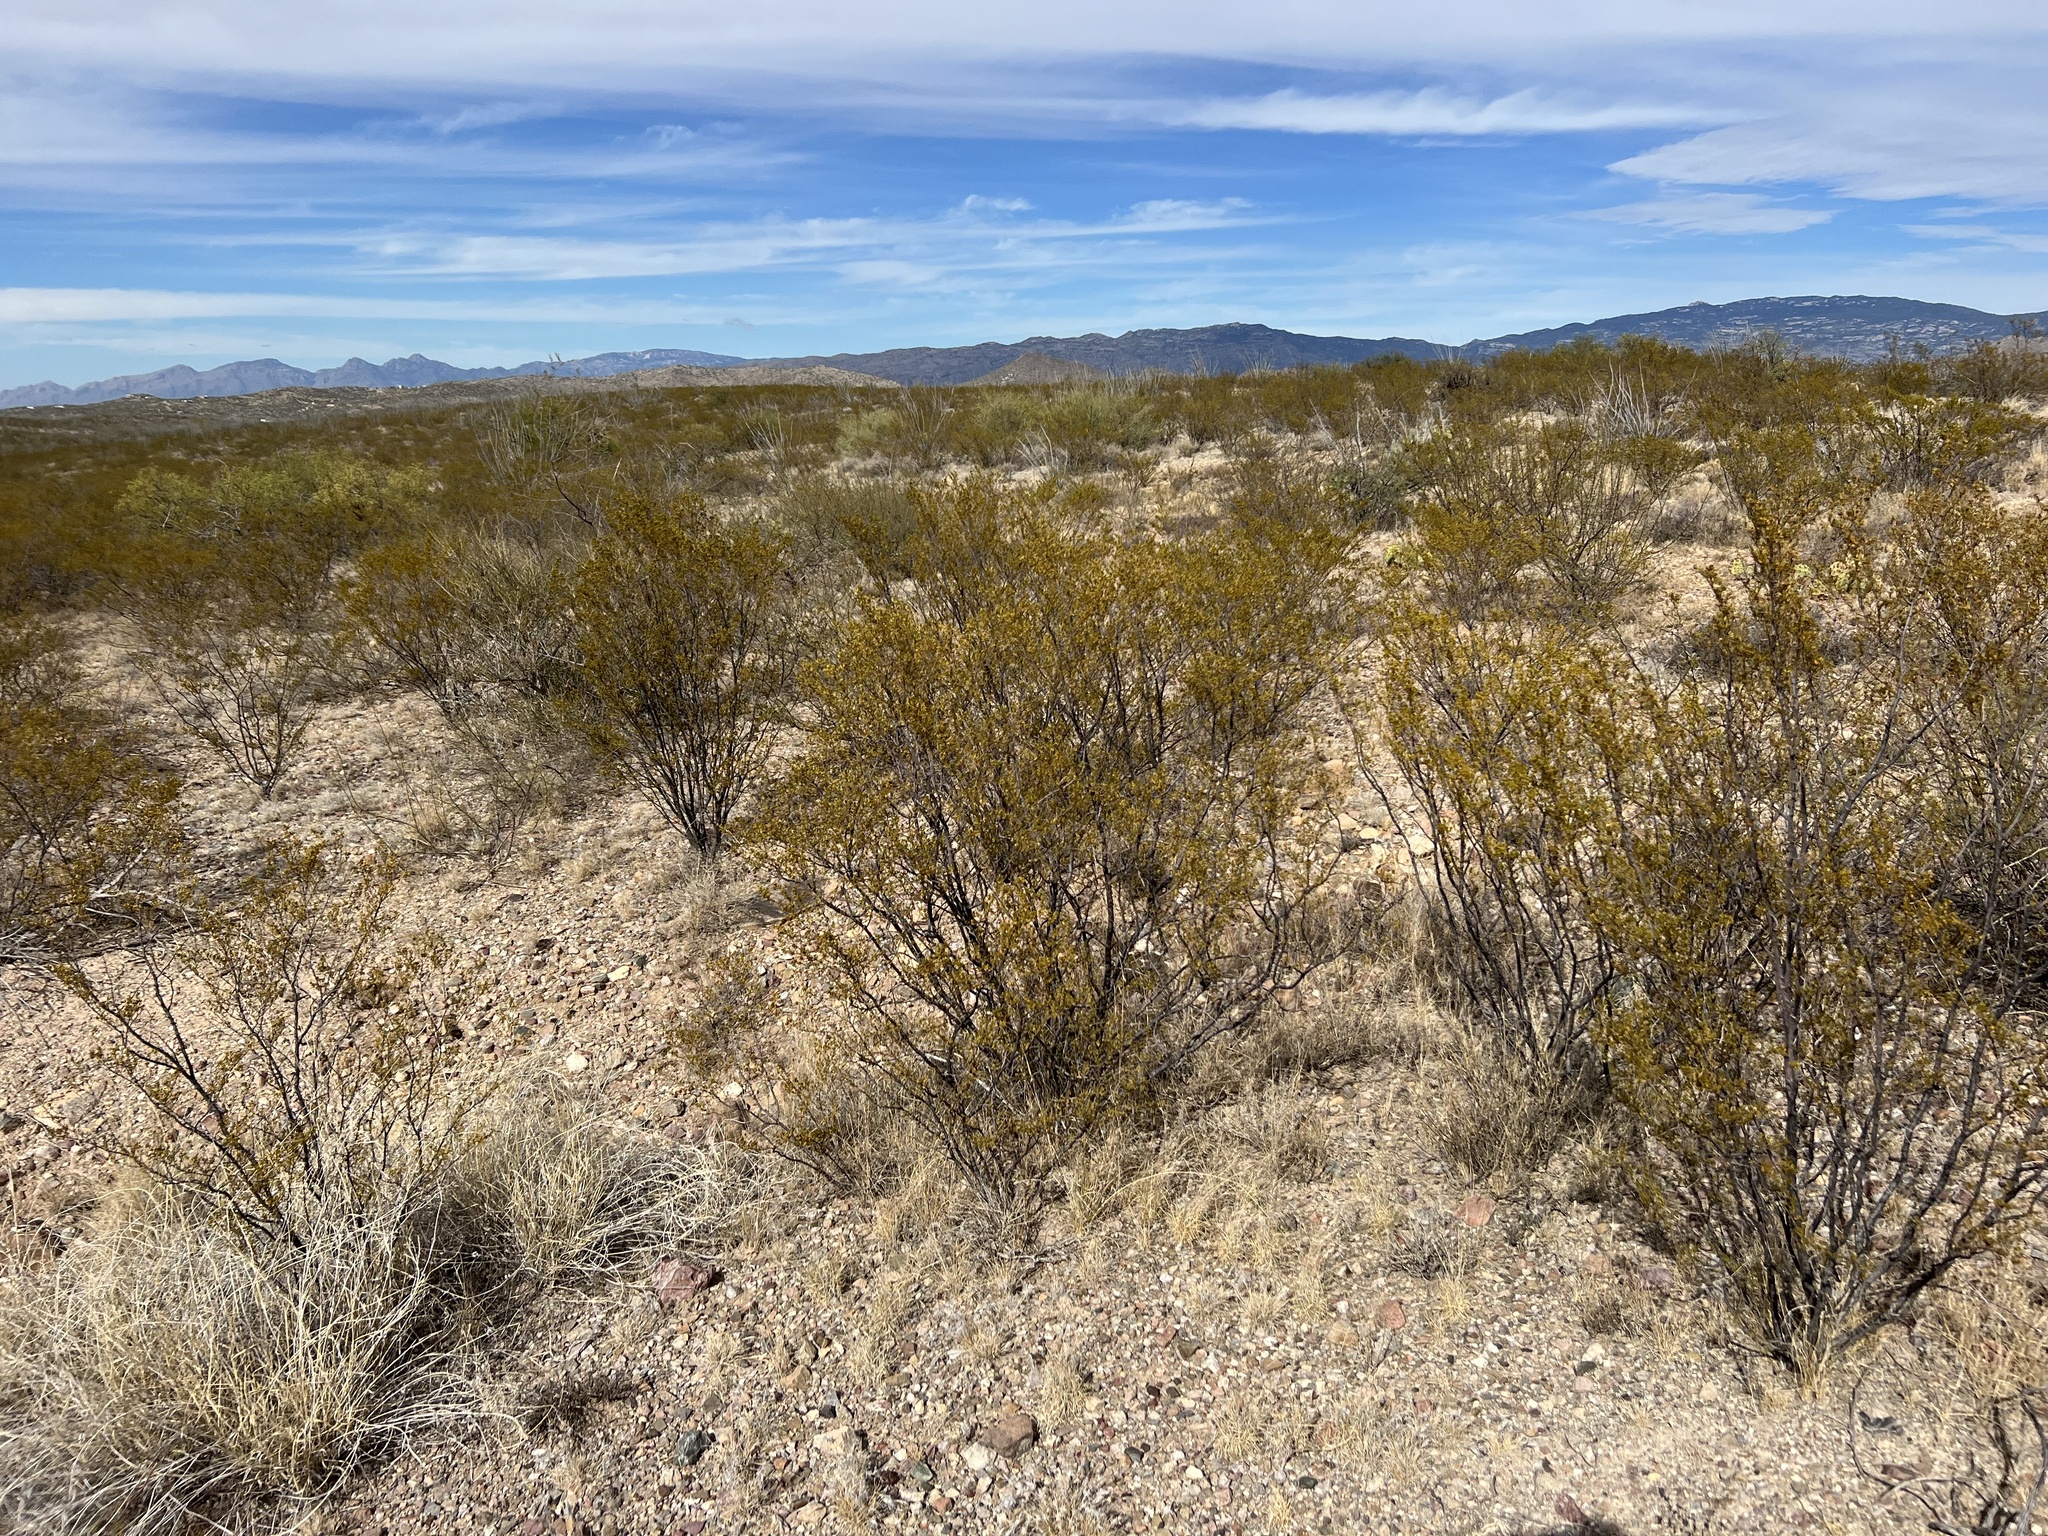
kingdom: Plantae
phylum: Tracheophyta
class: Magnoliopsida
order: Zygophyllales
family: Zygophyllaceae
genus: Larrea
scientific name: Larrea tridentata
